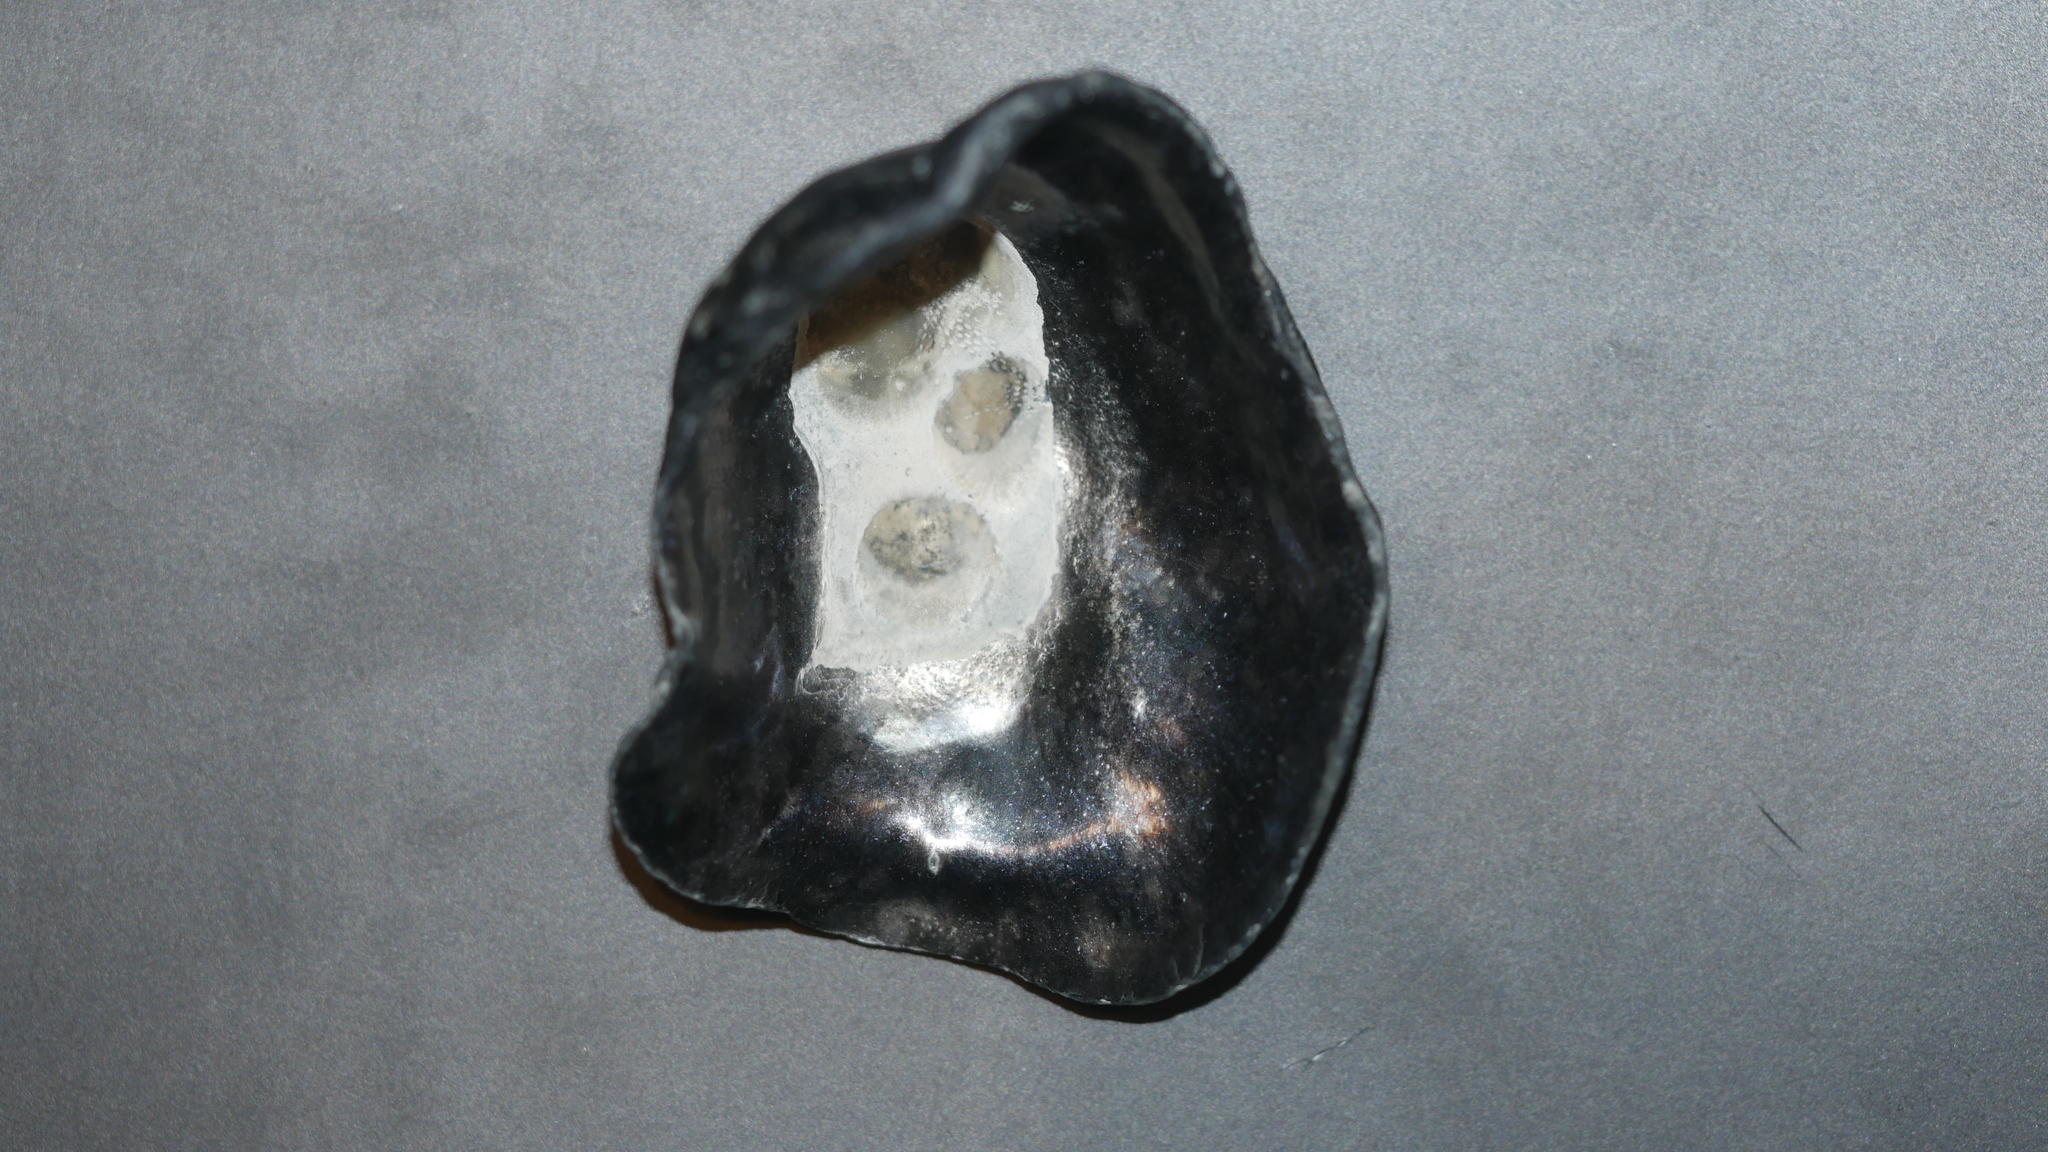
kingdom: Animalia
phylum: Mollusca
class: Bivalvia
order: Pectinida
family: Anomiidae
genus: Anomia
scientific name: Anomia simplex
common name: Common jingle shell
